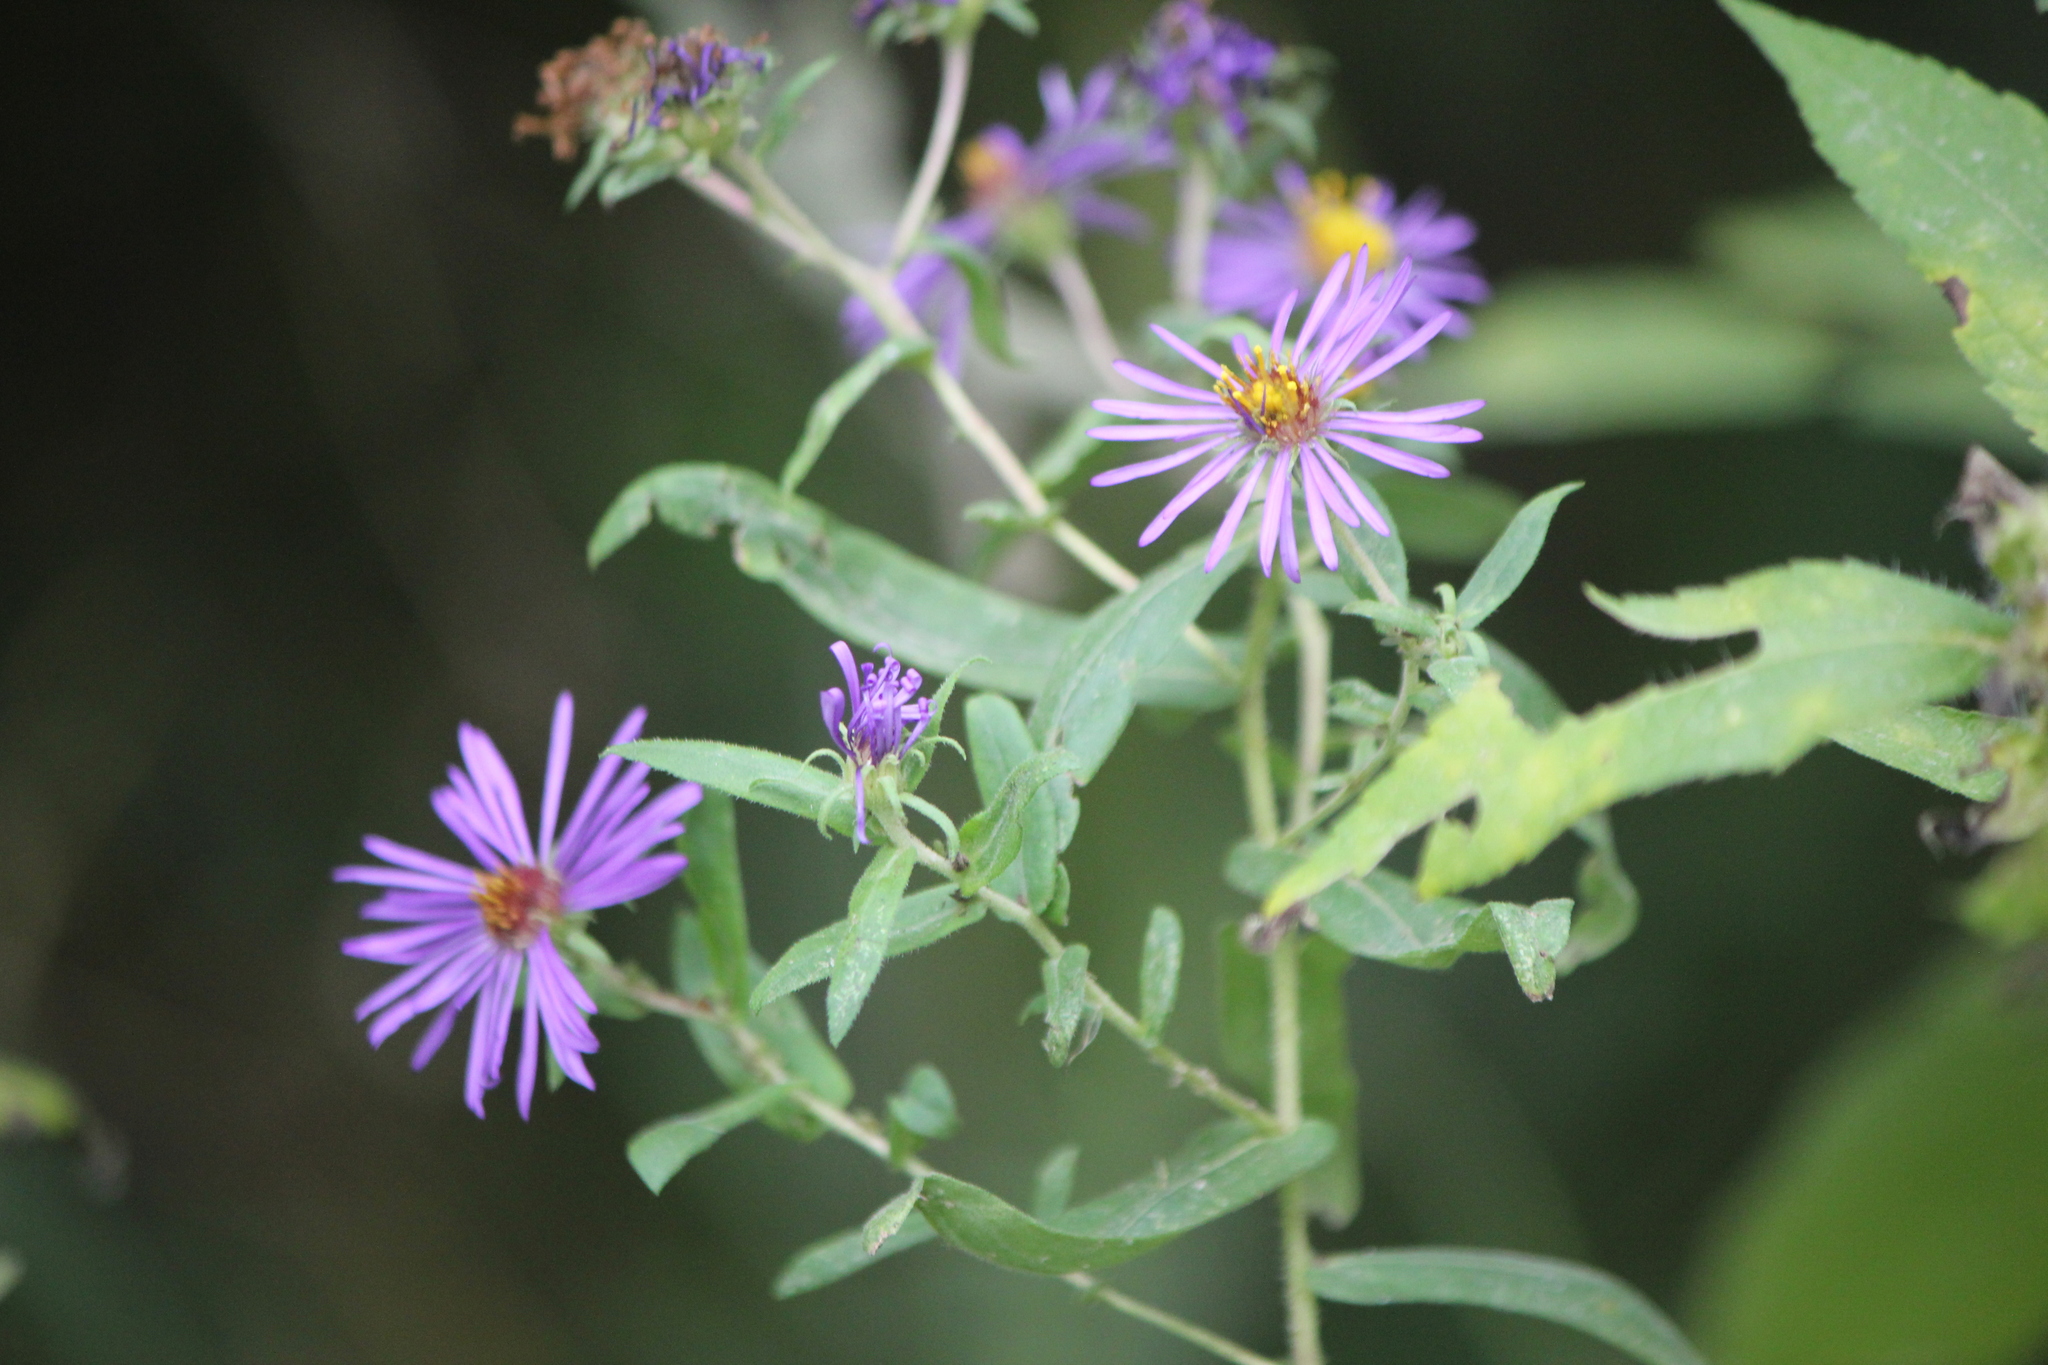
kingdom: Plantae
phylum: Tracheophyta
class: Magnoliopsida
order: Asterales
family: Asteraceae
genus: Symphyotrichum
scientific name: Symphyotrichum novae-angliae
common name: Michaelmas daisy
